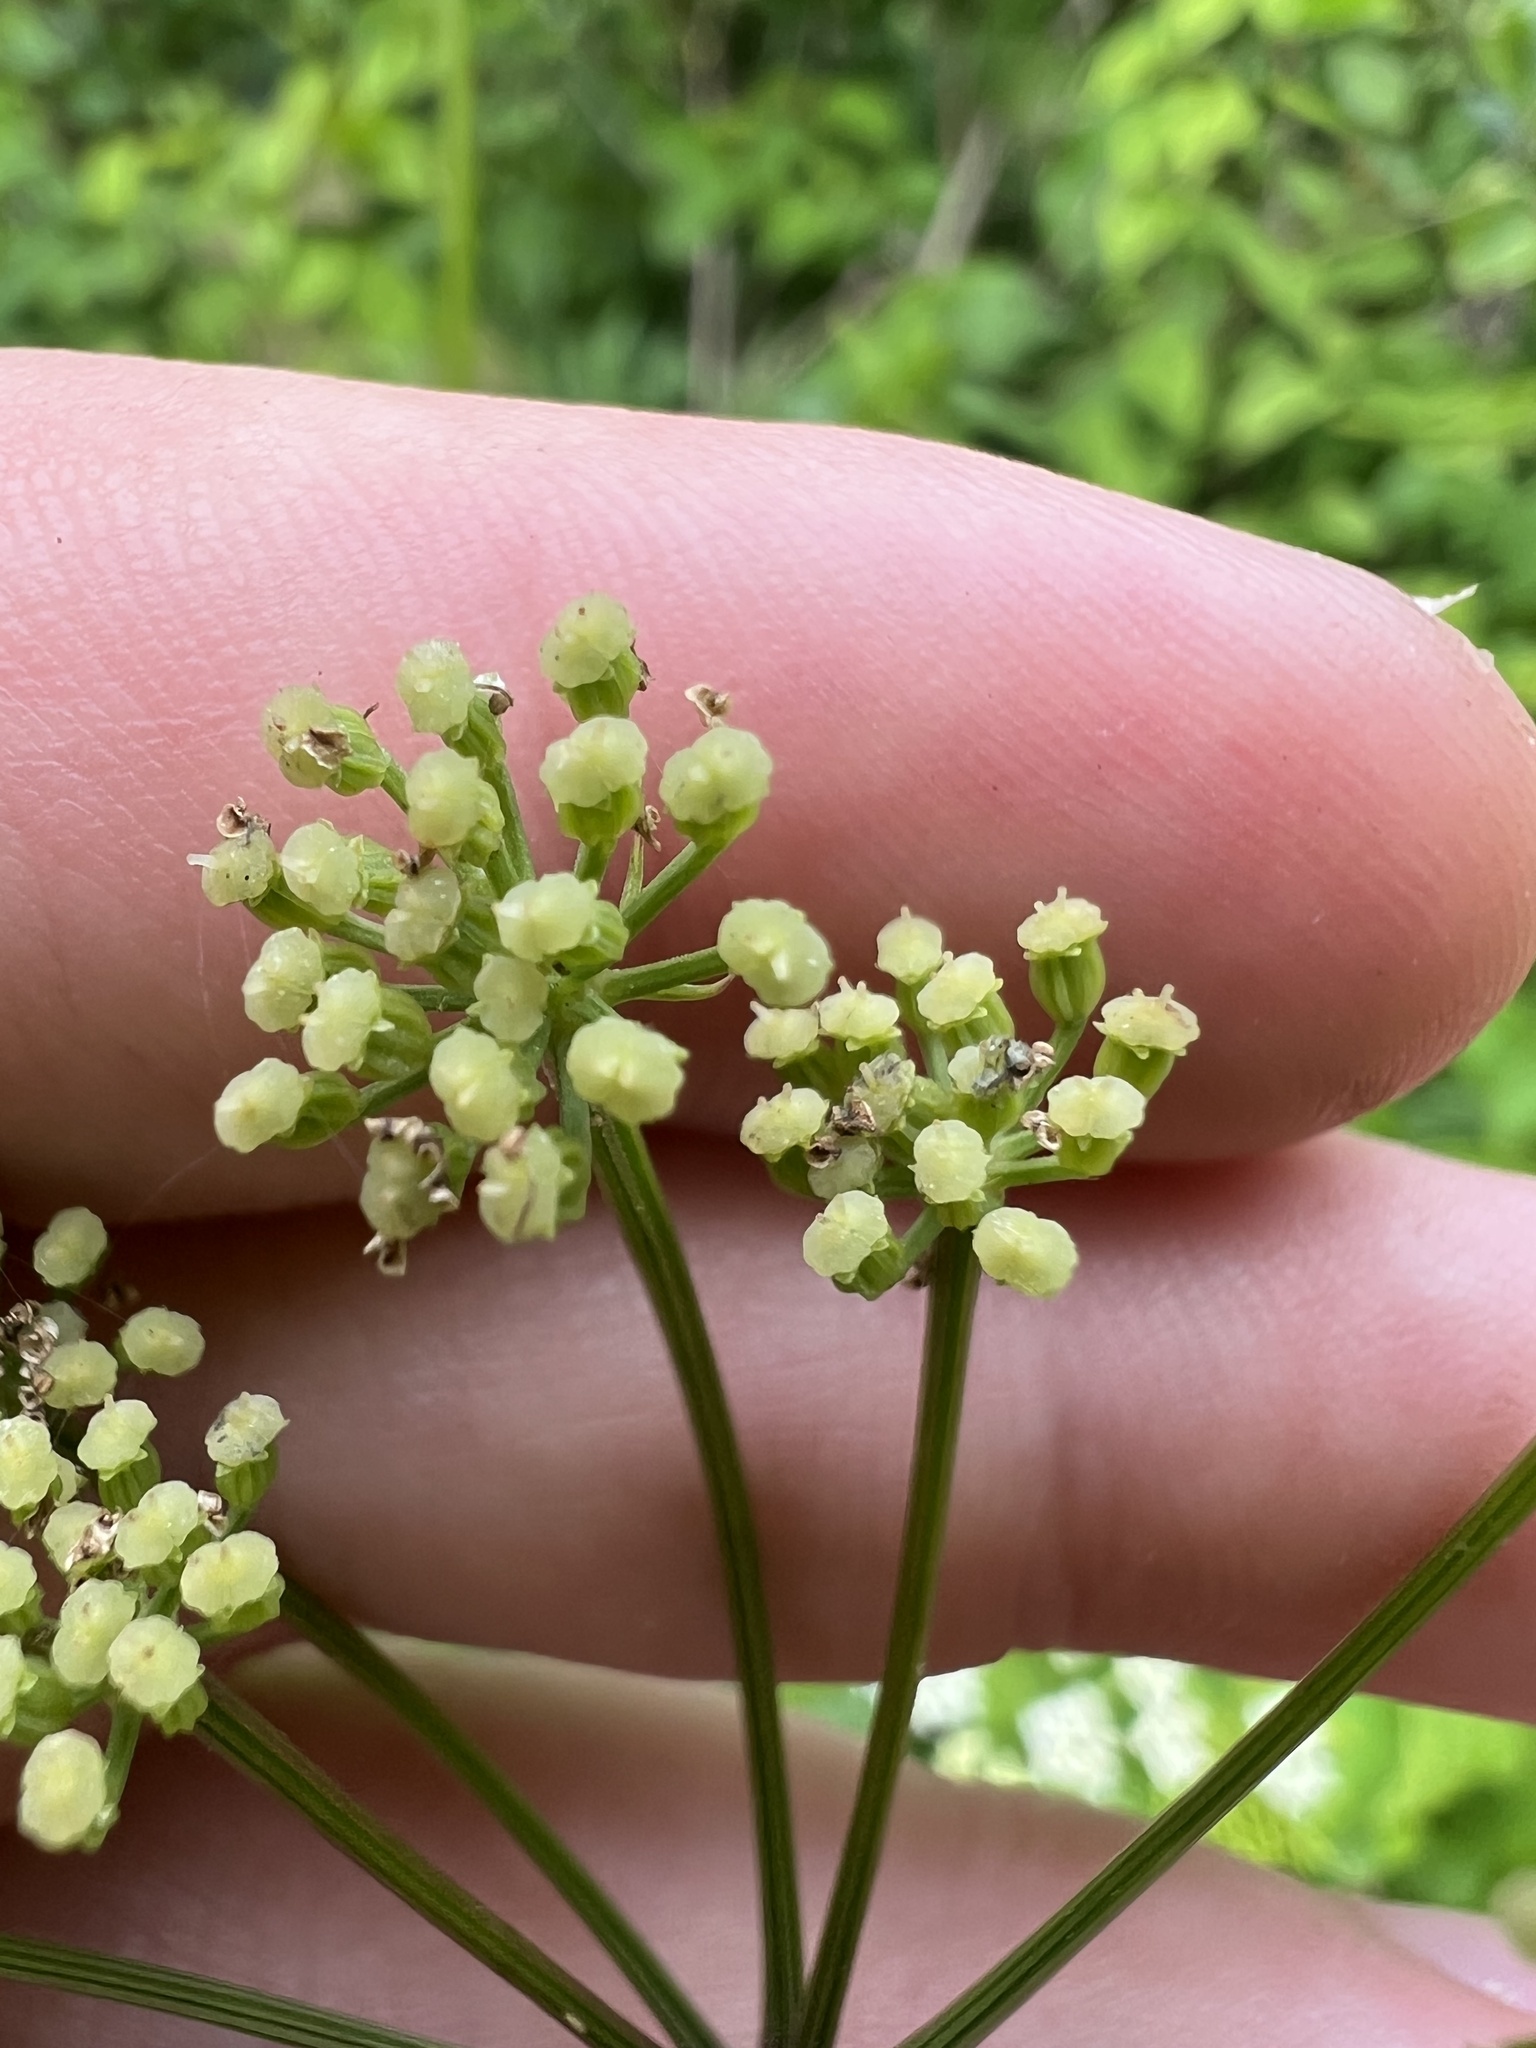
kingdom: Plantae
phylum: Tracheophyta
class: Magnoliopsida
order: Apiales
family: Apiaceae
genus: Ligusticum
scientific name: Ligusticum canadense
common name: American lovage
